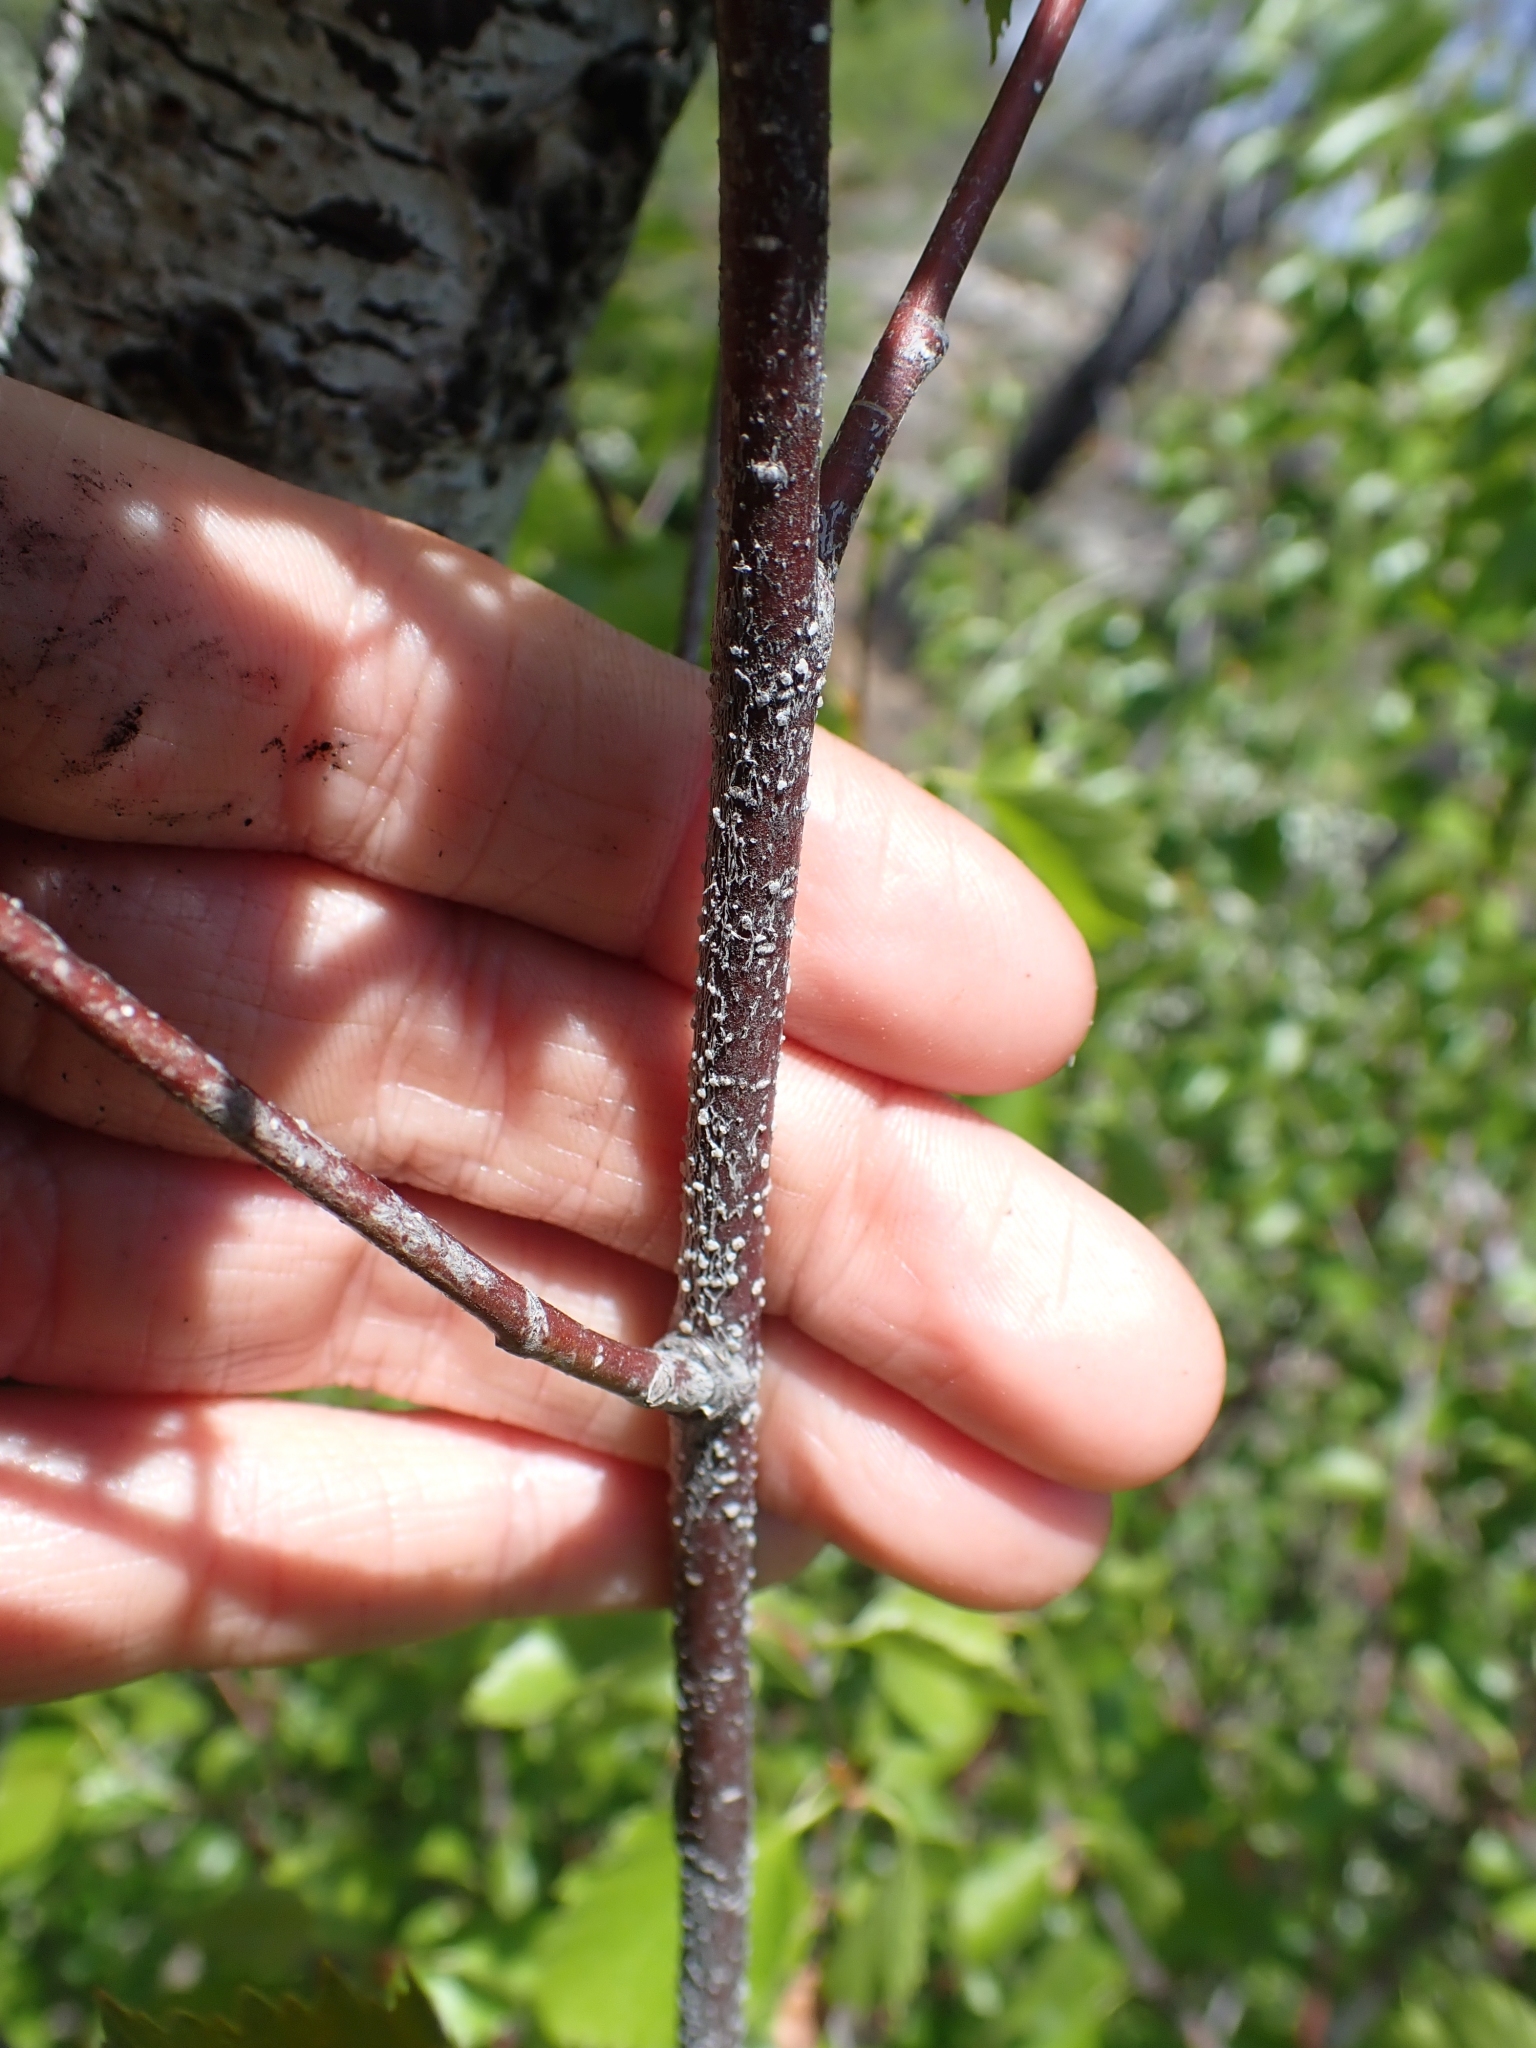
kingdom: Plantae
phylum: Tracheophyta
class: Magnoliopsida
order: Fagales
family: Betulaceae
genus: Betula
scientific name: Betula occidentalis
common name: River birch
